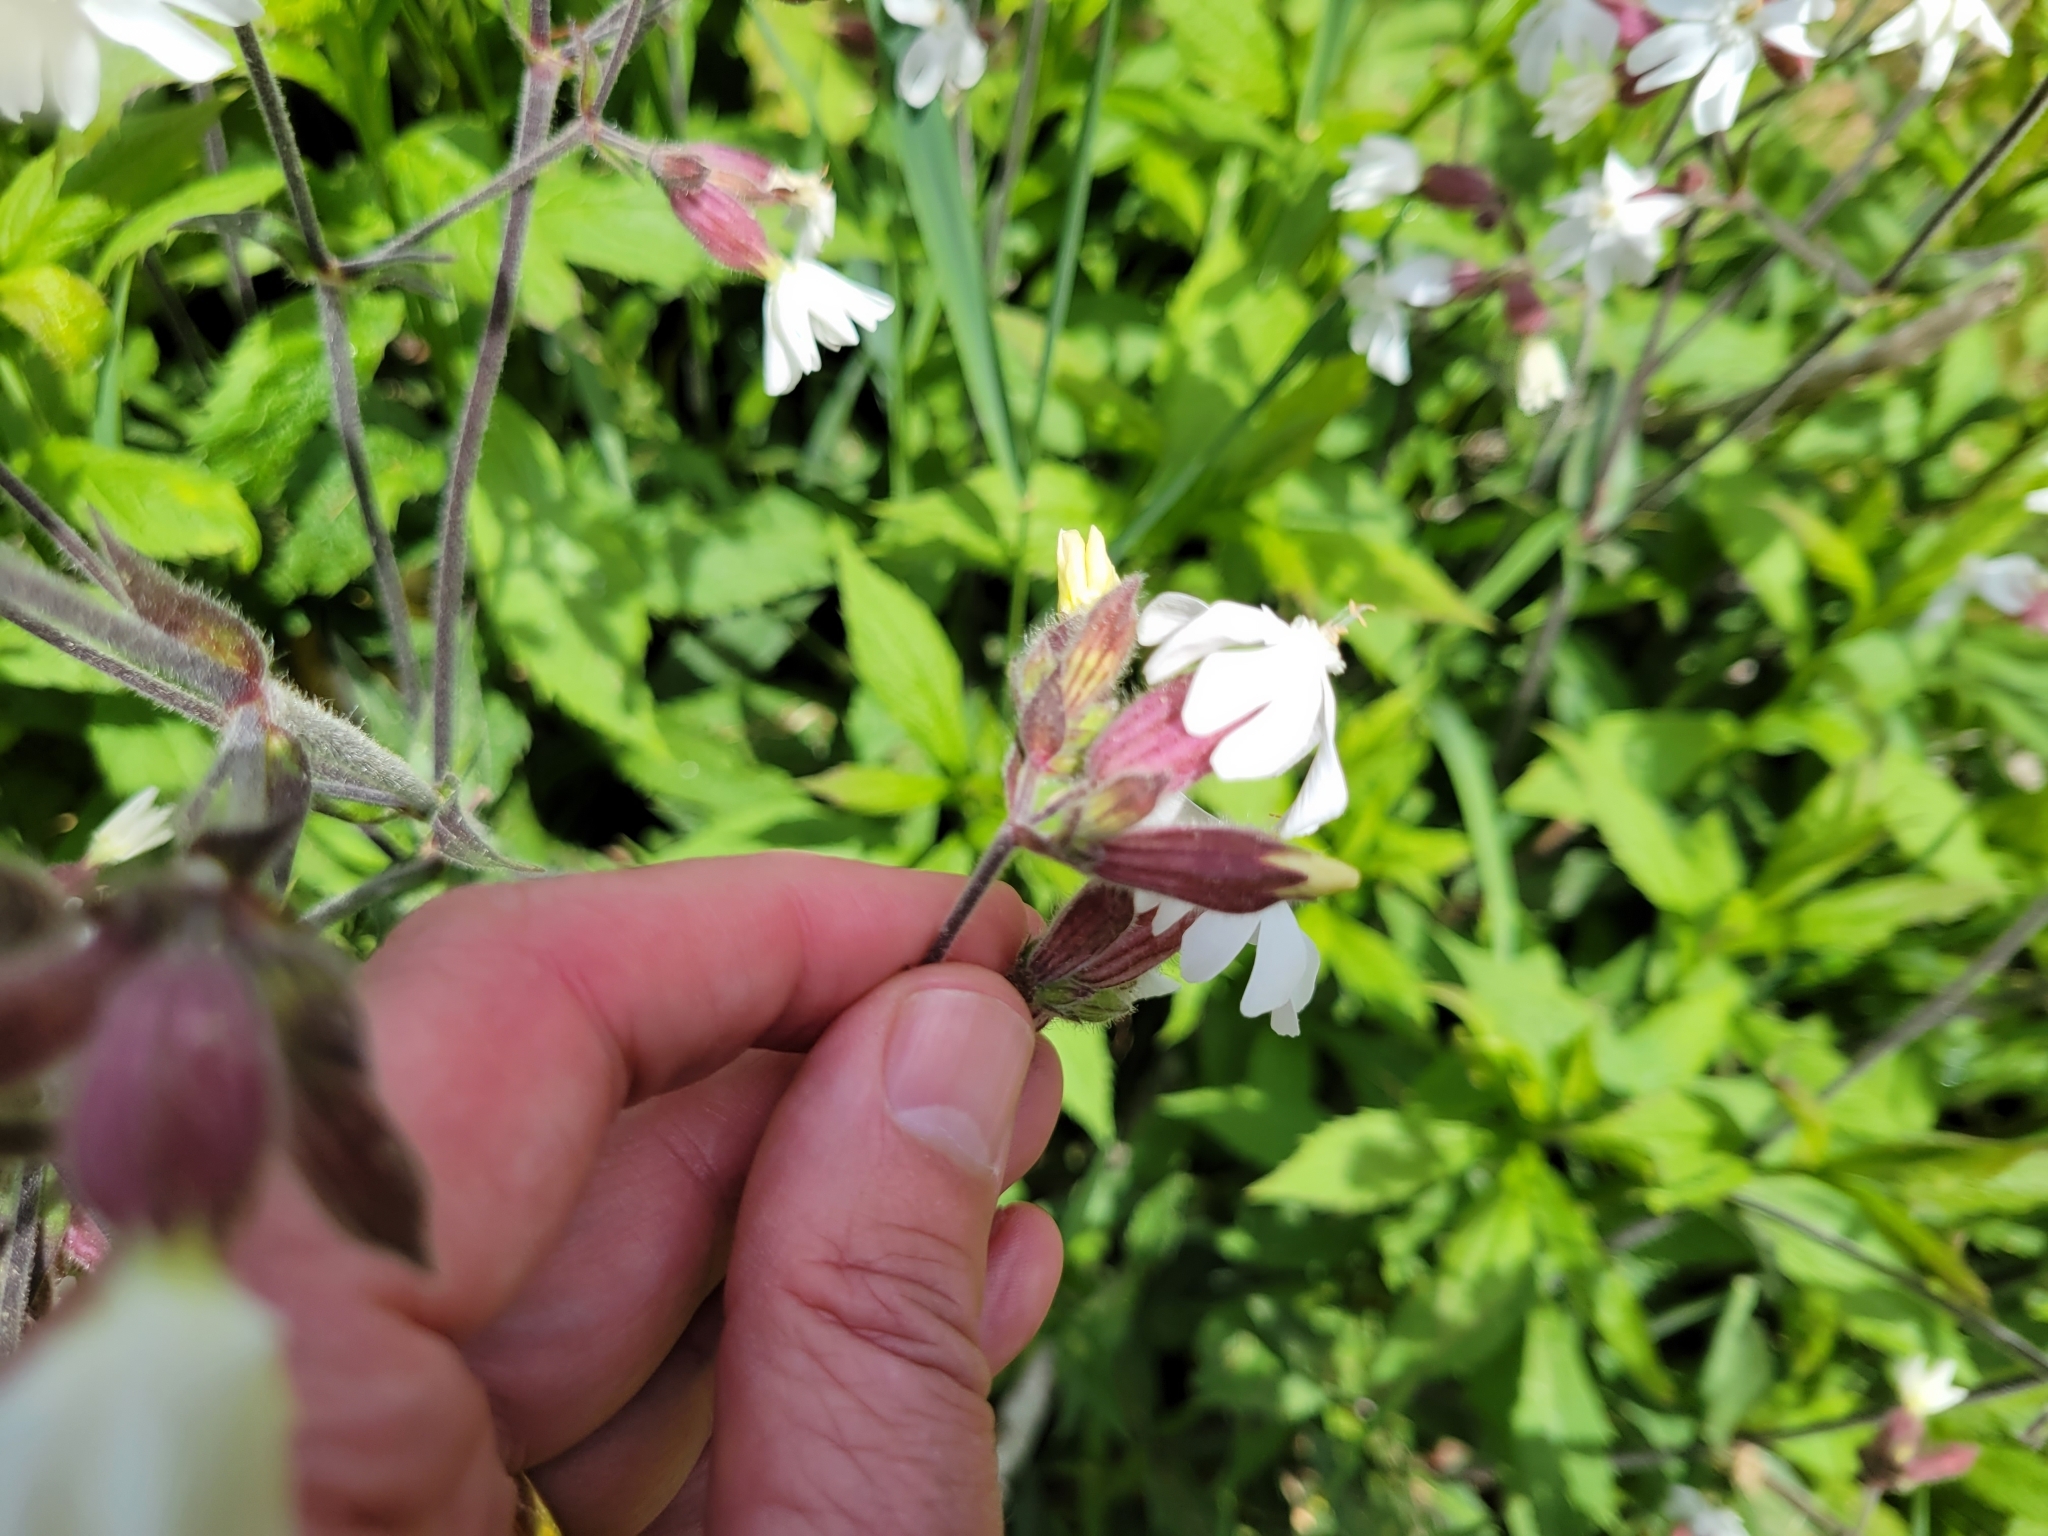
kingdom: Plantae
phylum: Tracheophyta
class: Magnoliopsida
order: Caryophyllales
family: Caryophyllaceae
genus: Silene
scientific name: Silene latifolia
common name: White campion
